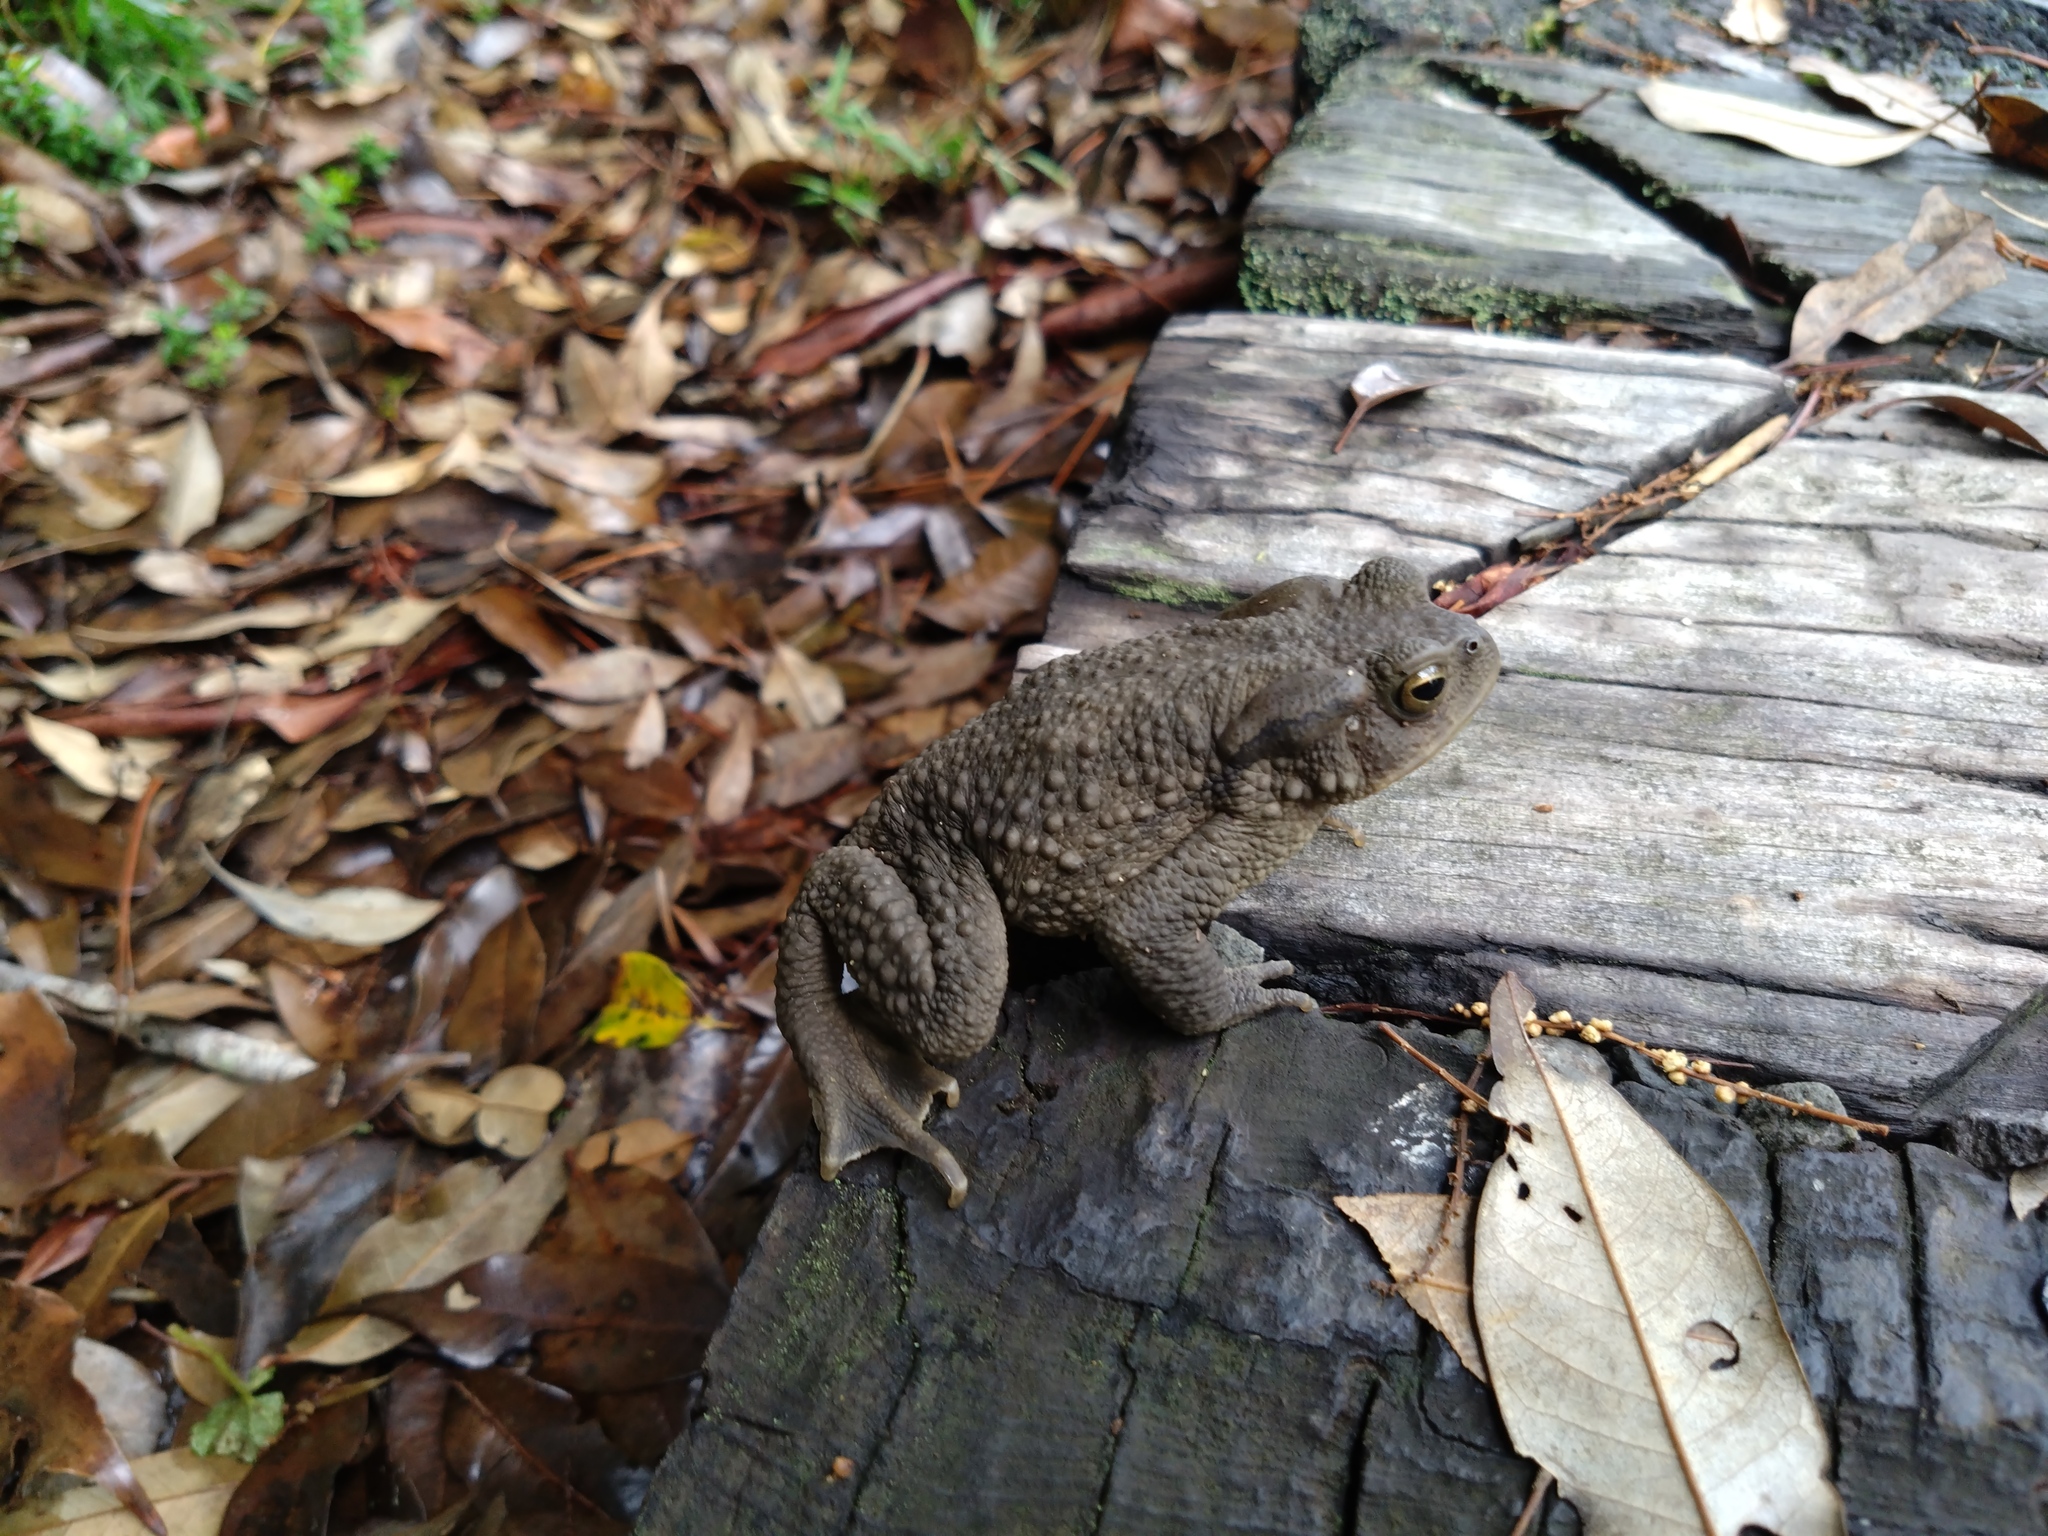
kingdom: Animalia
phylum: Chordata
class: Amphibia
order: Anura
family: Bufonidae
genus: Bufo
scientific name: Bufo bankorensis
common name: Bankor toad
